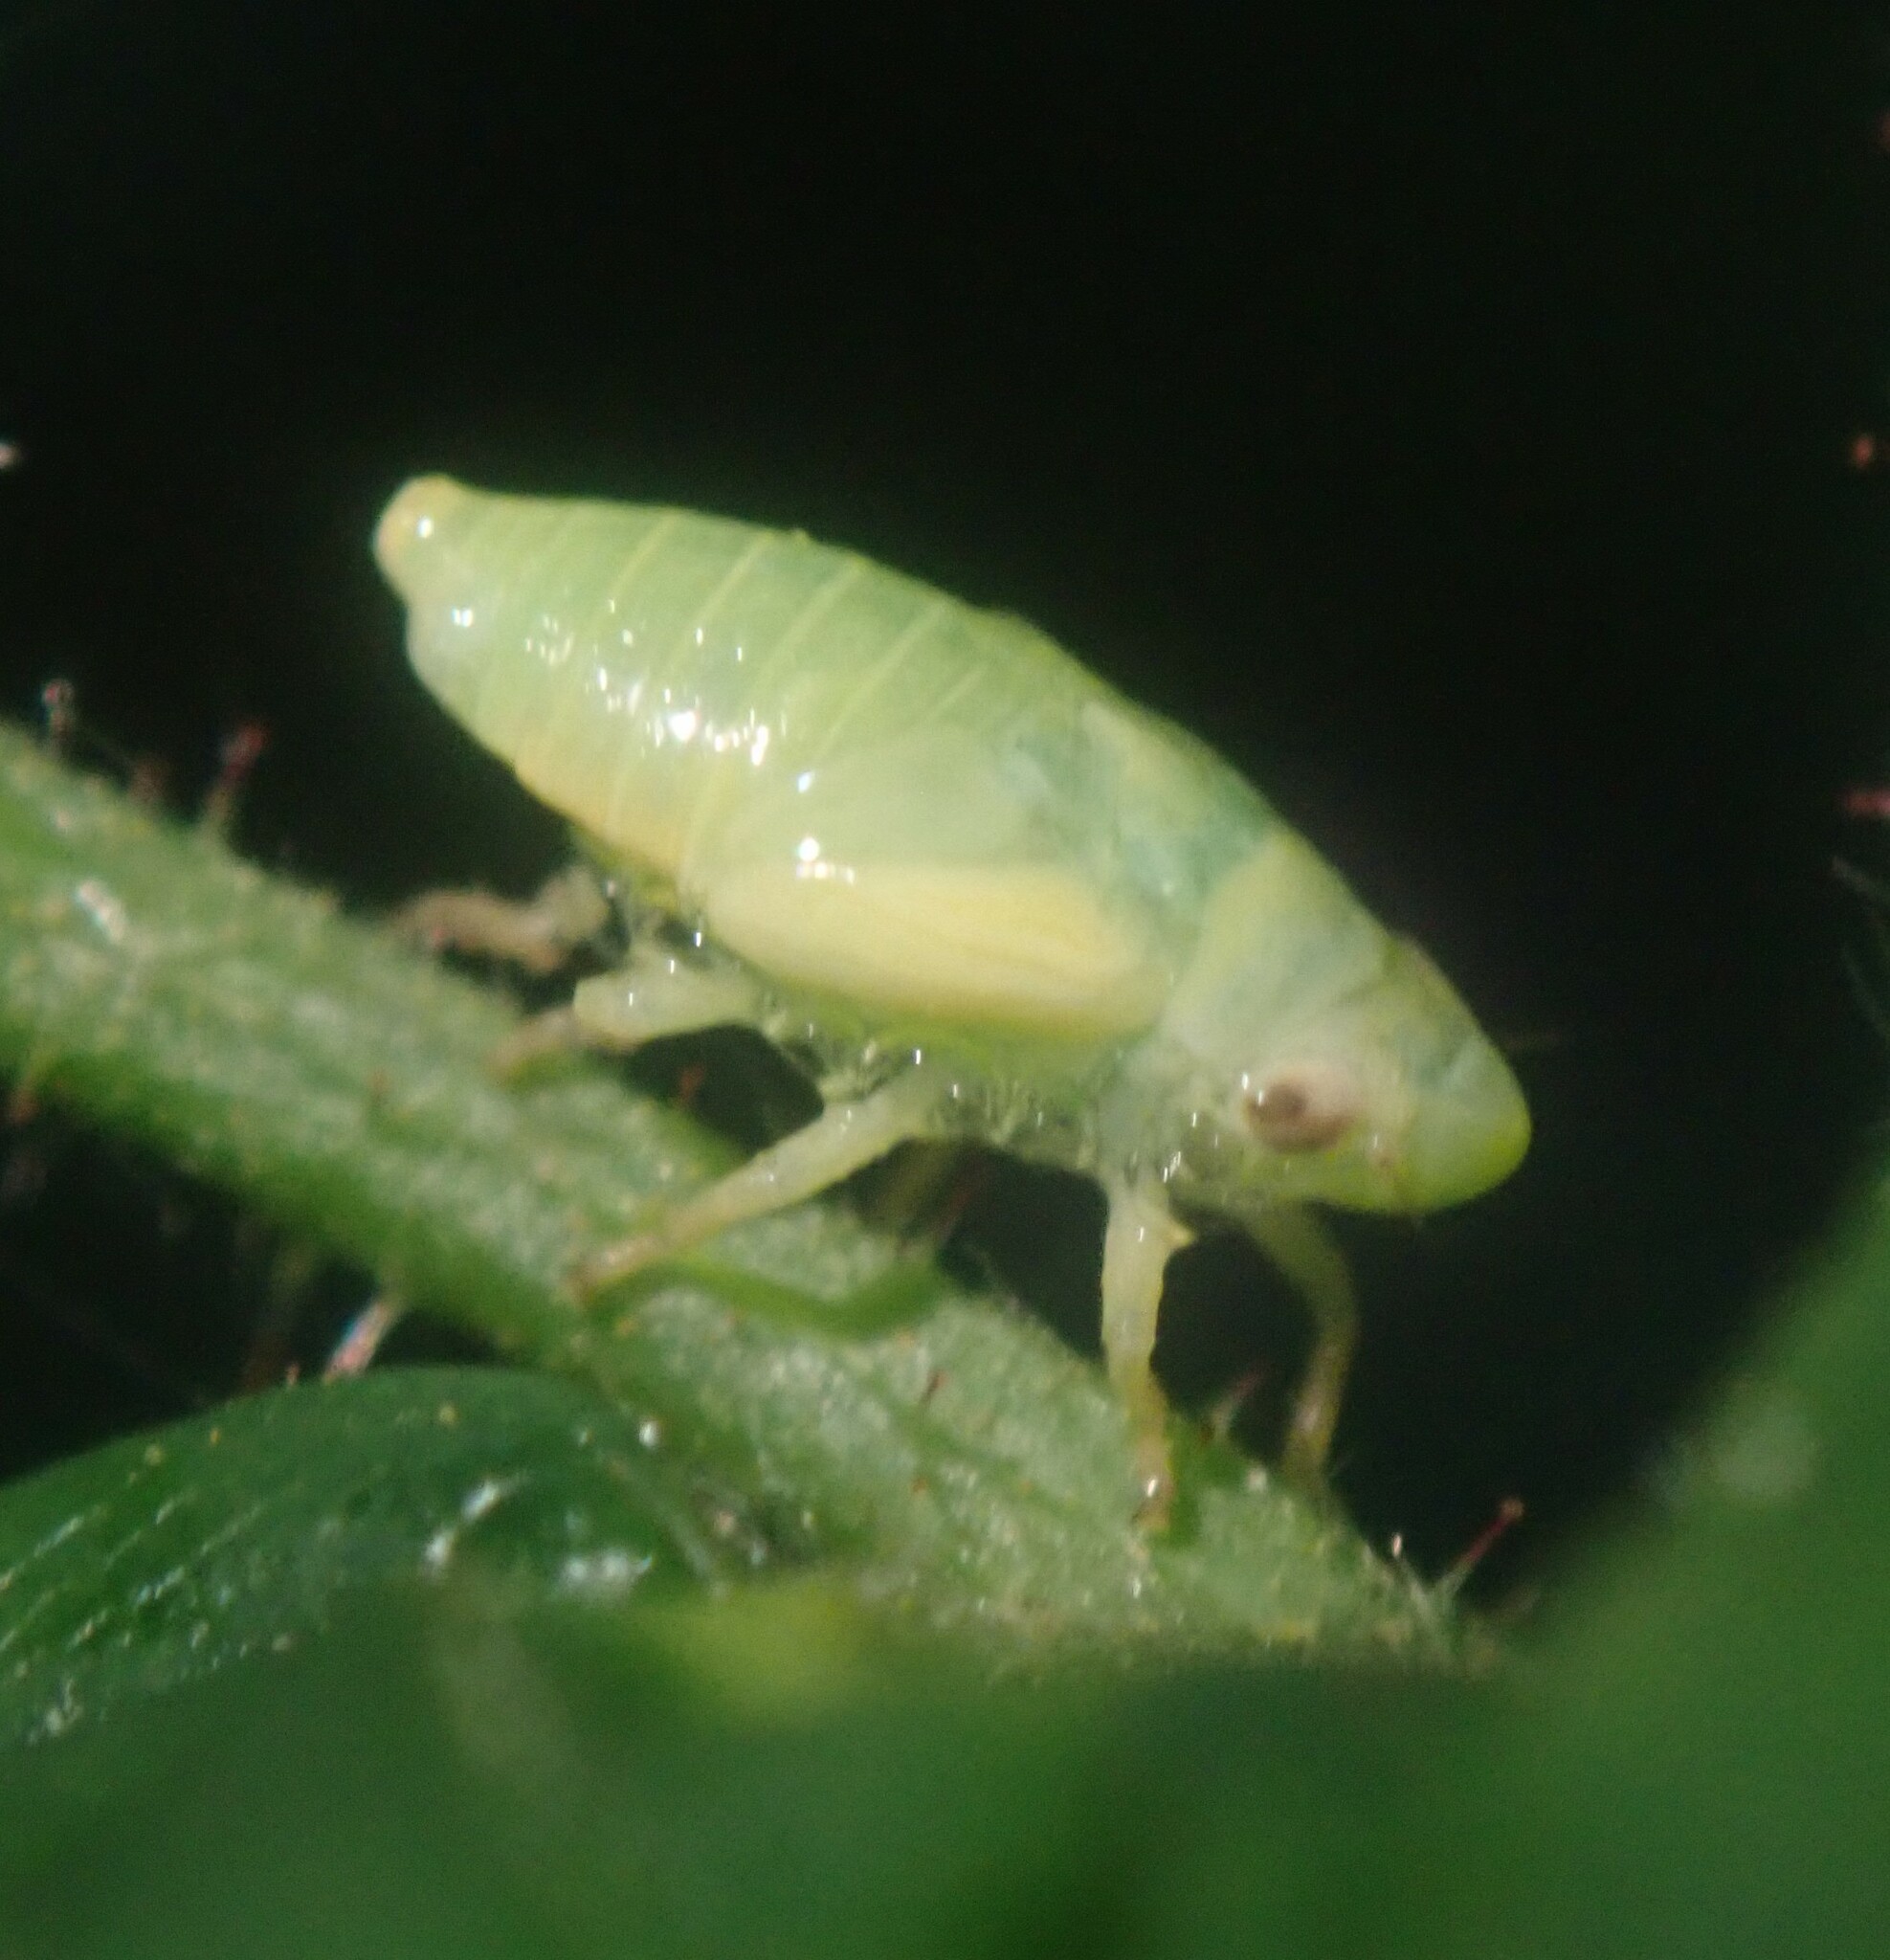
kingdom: Animalia
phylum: Arthropoda
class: Insecta
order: Hemiptera
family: Aphrophoridae
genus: Philaenus
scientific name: Philaenus spumarius
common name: Meadow spittlebug
